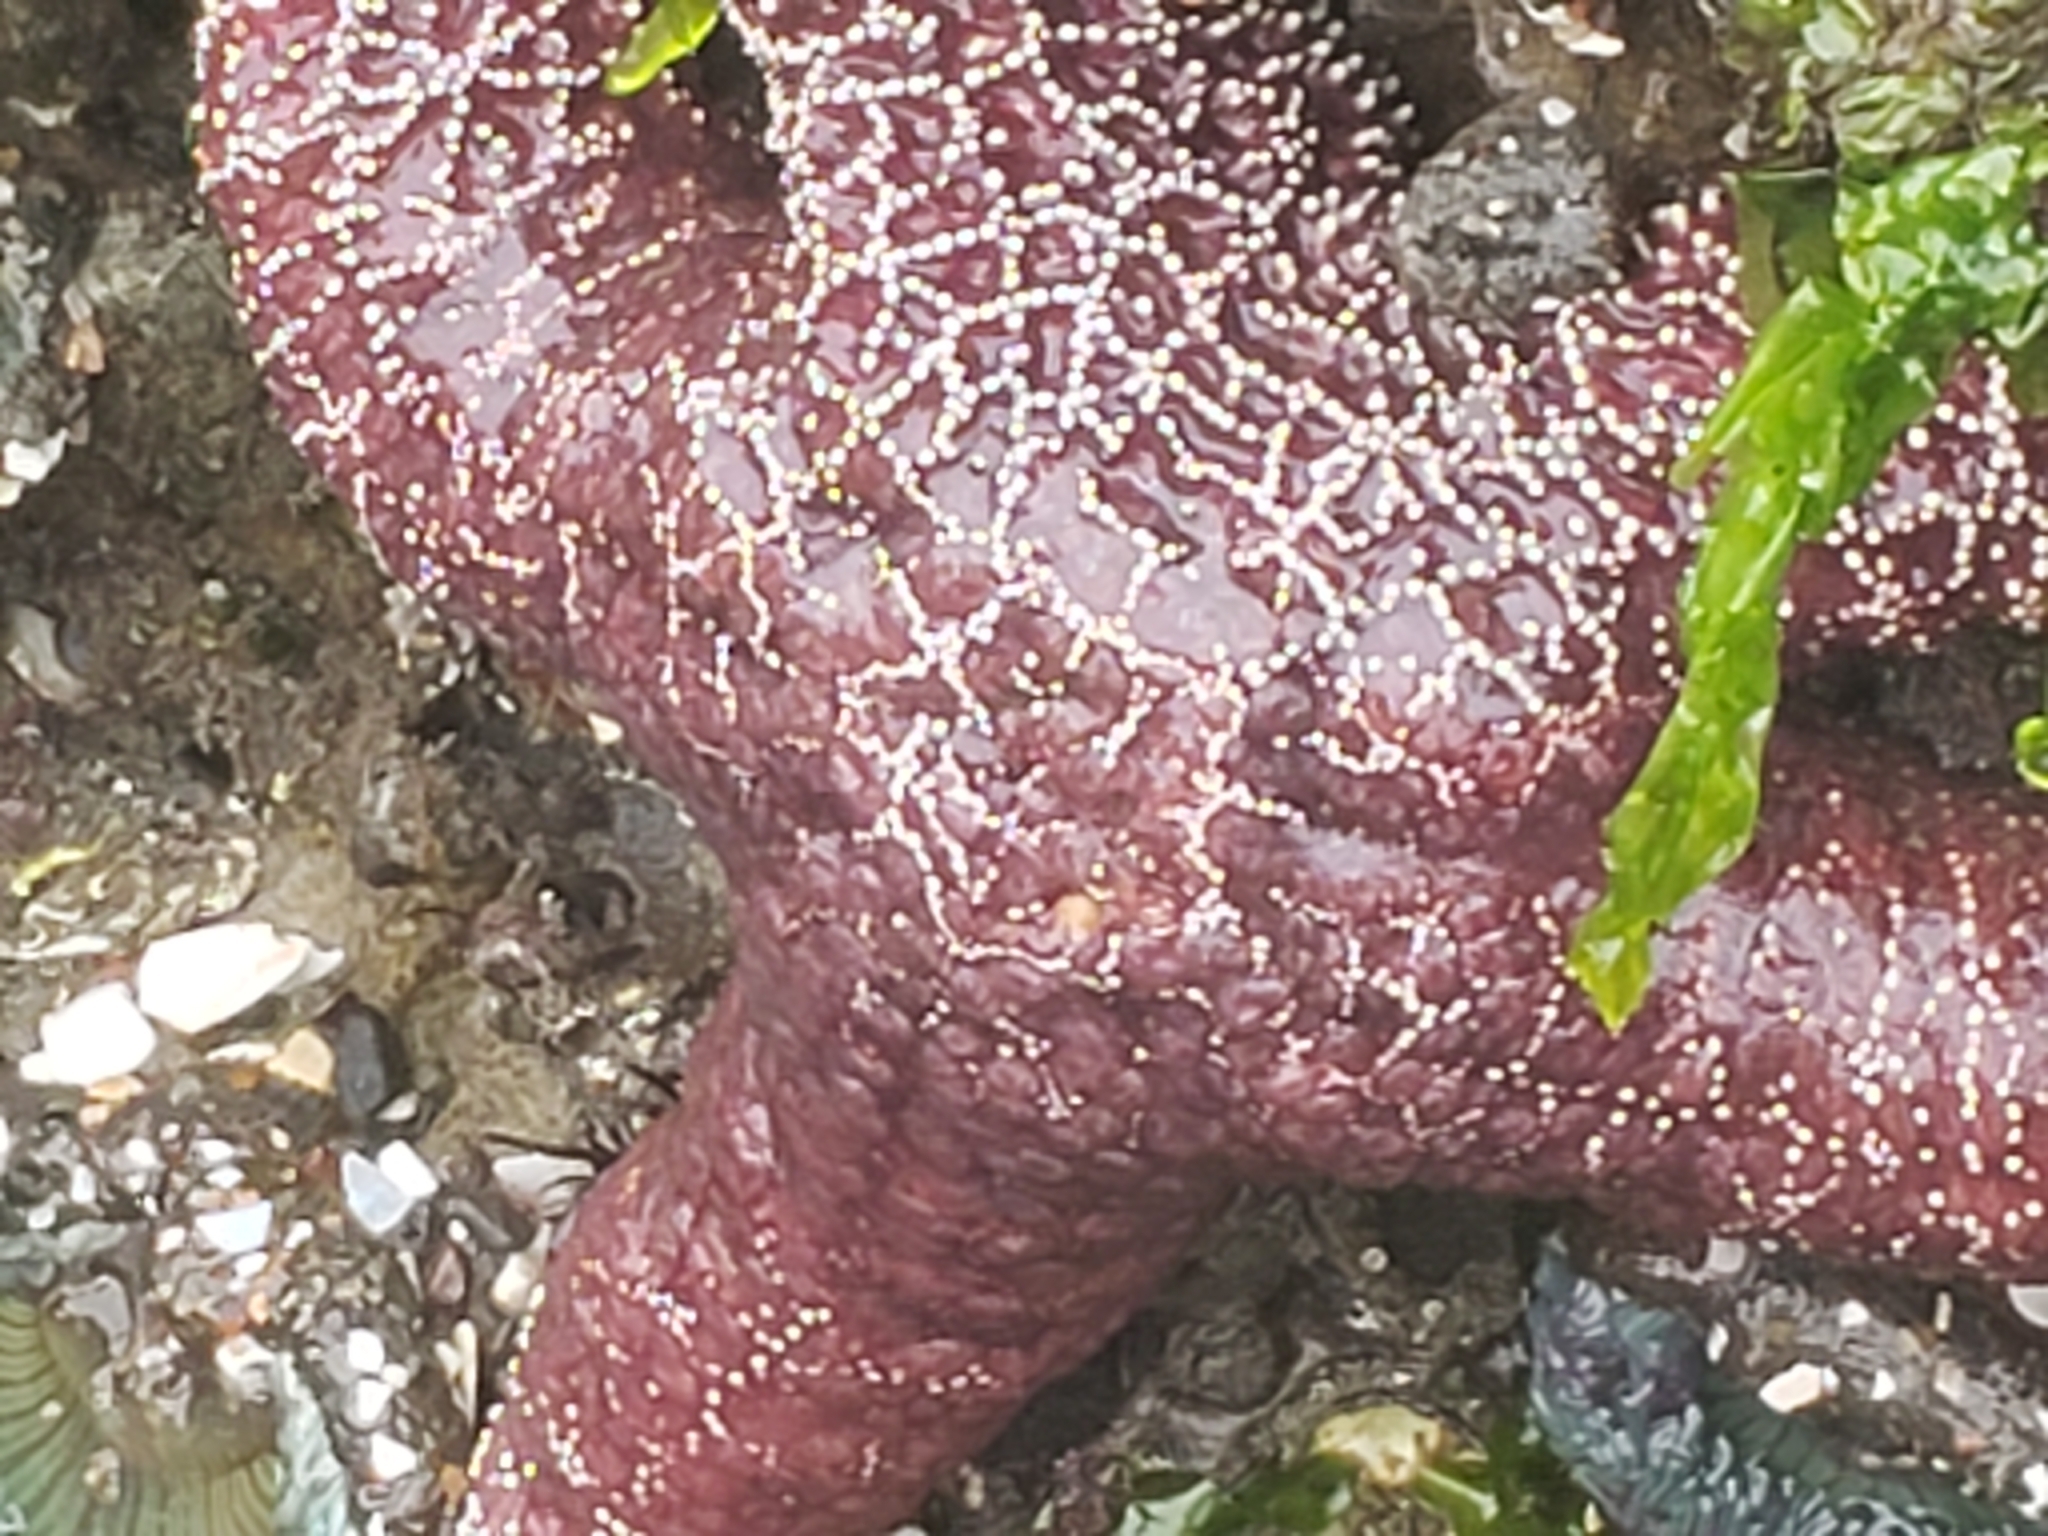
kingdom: Animalia
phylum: Echinodermata
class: Asteroidea
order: Forcipulatida
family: Asteriidae
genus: Pisaster
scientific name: Pisaster ochraceus
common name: Ochre stars
